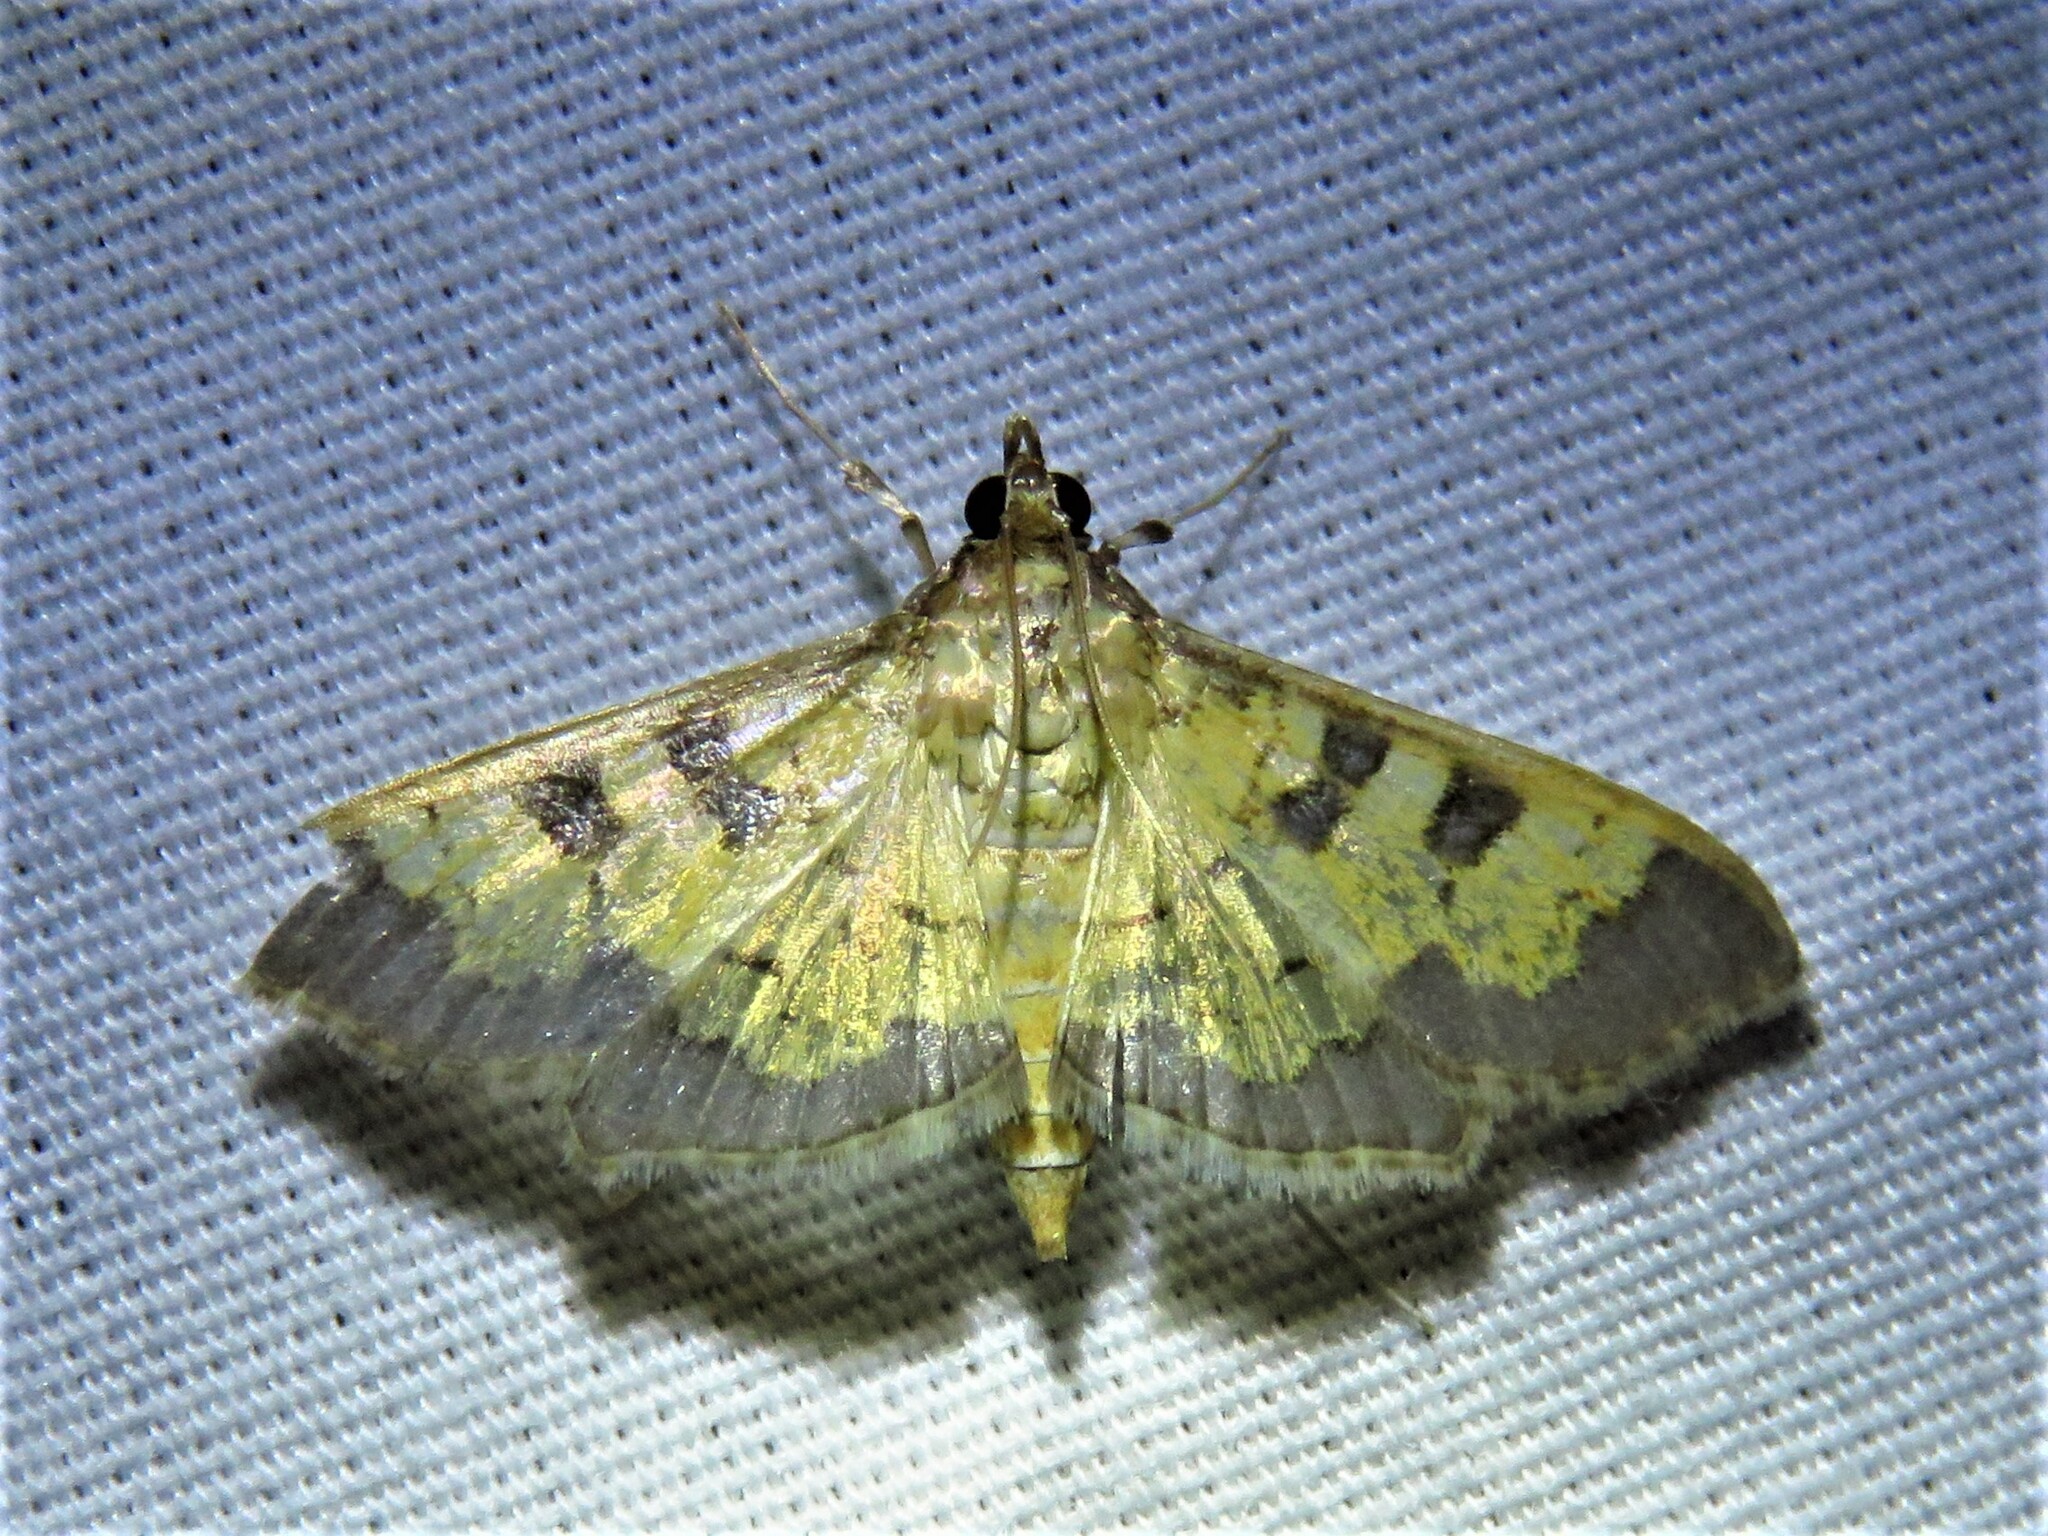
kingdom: Animalia
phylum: Arthropoda
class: Insecta
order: Lepidoptera
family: Crambidae
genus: Cryptographis
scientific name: Cryptographis elealis
